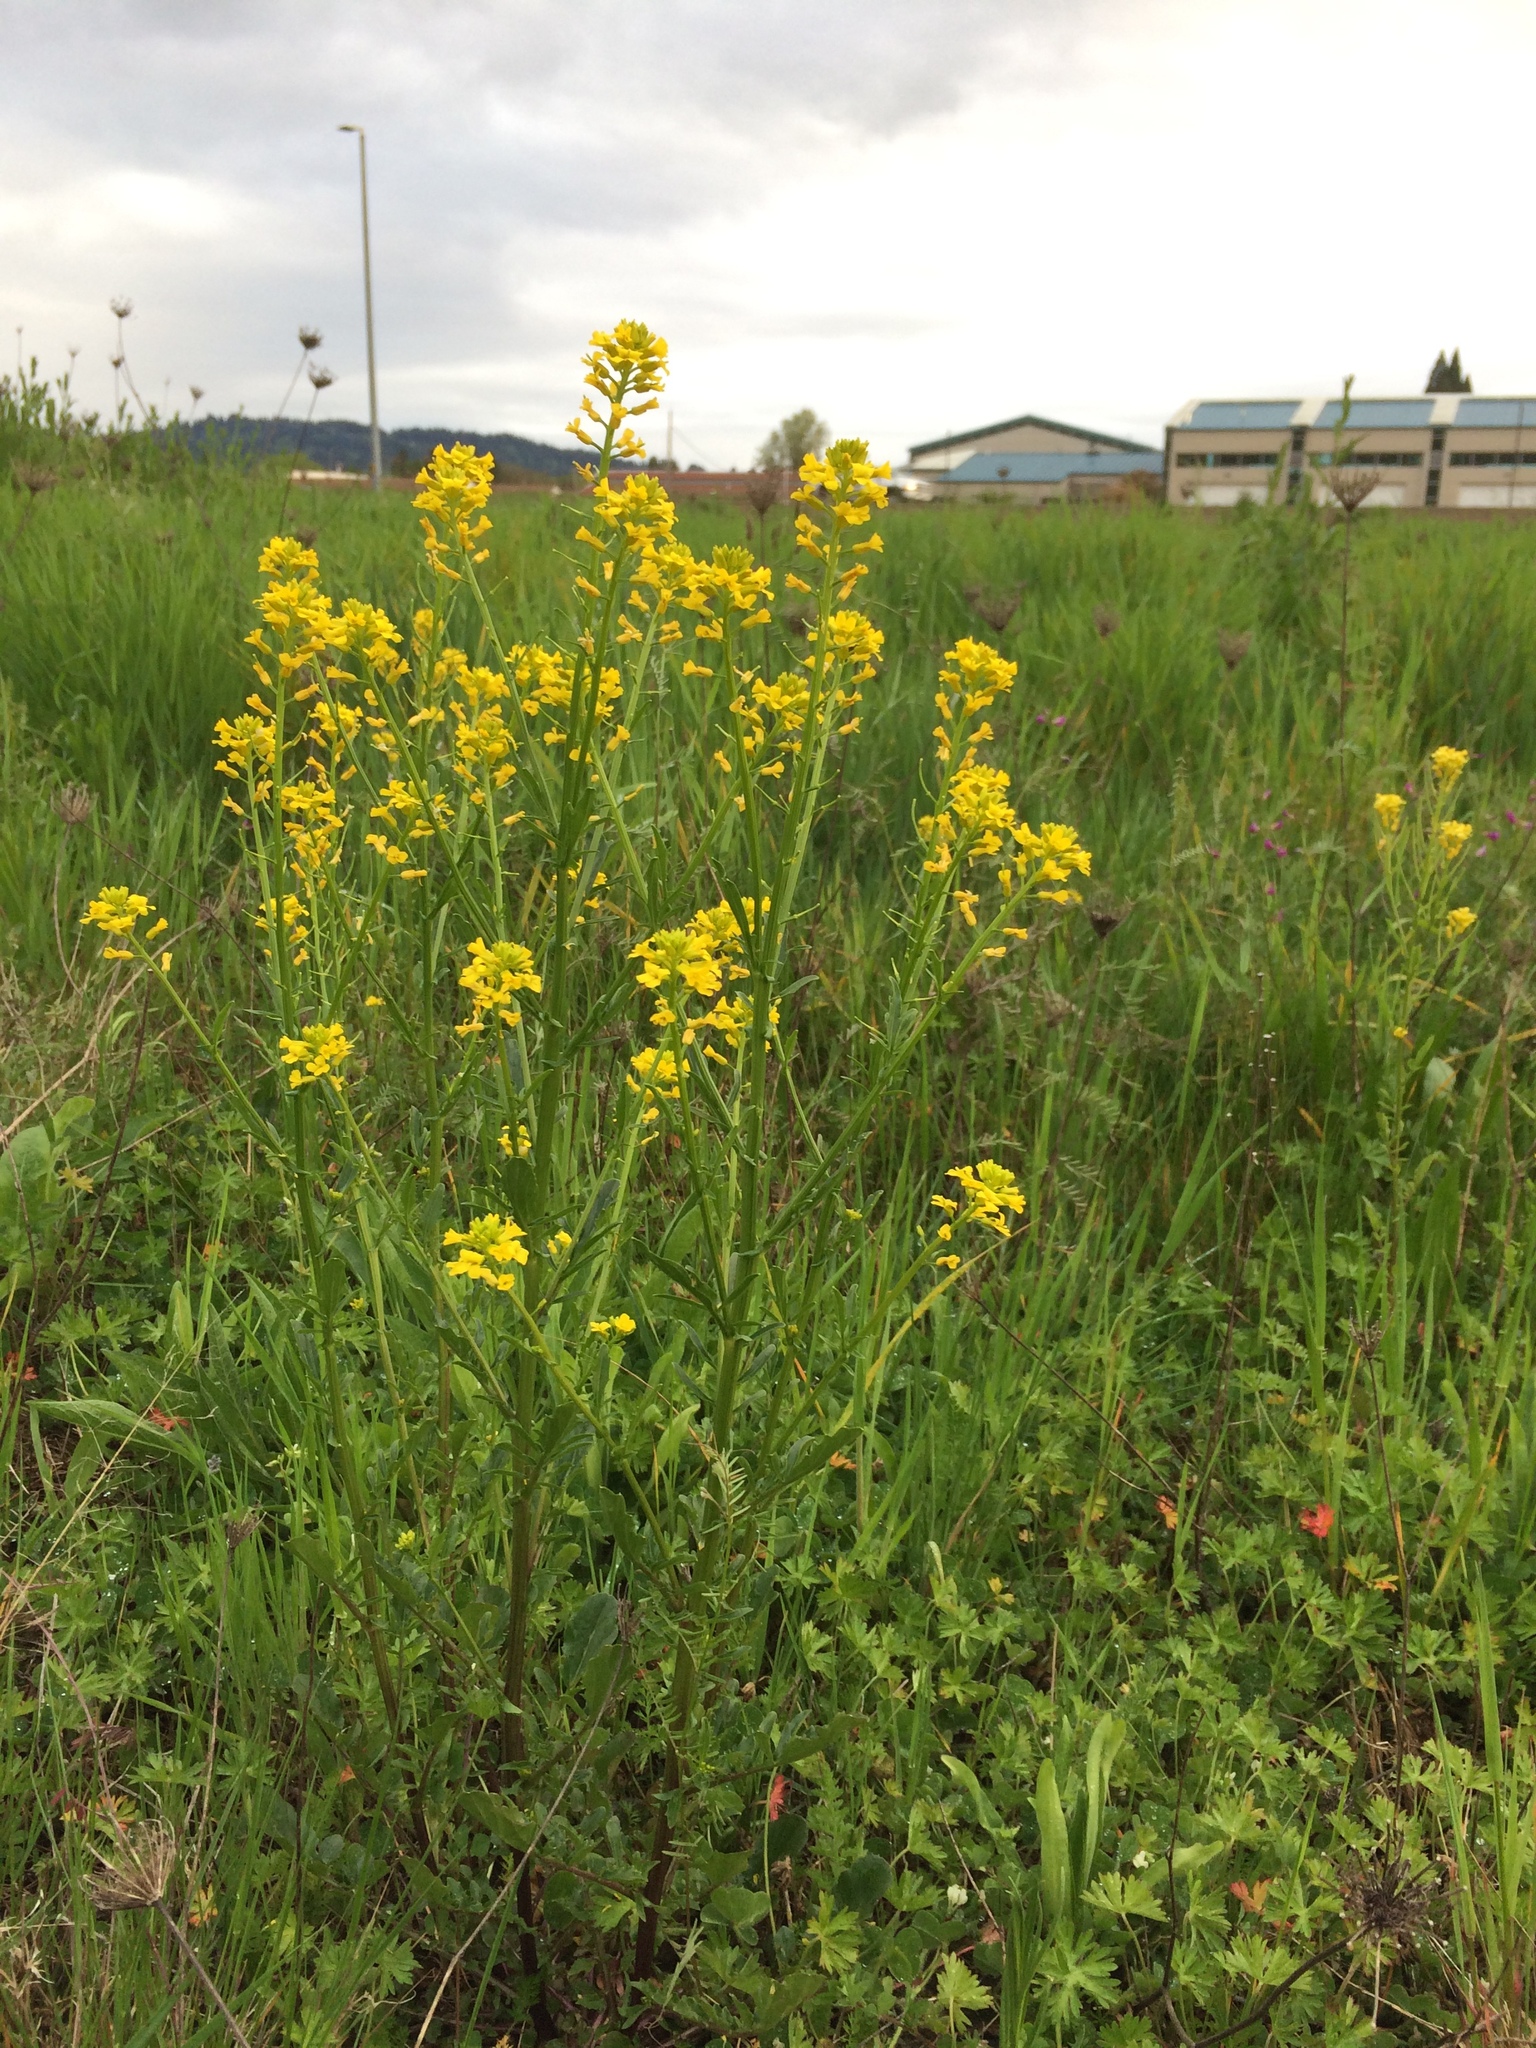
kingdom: Plantae
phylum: Tracheophyta
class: Magnoliopsida
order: Brassicales
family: Brassicaceae
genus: Barbarea
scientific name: Barbarea orthoceras
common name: American wintercress
